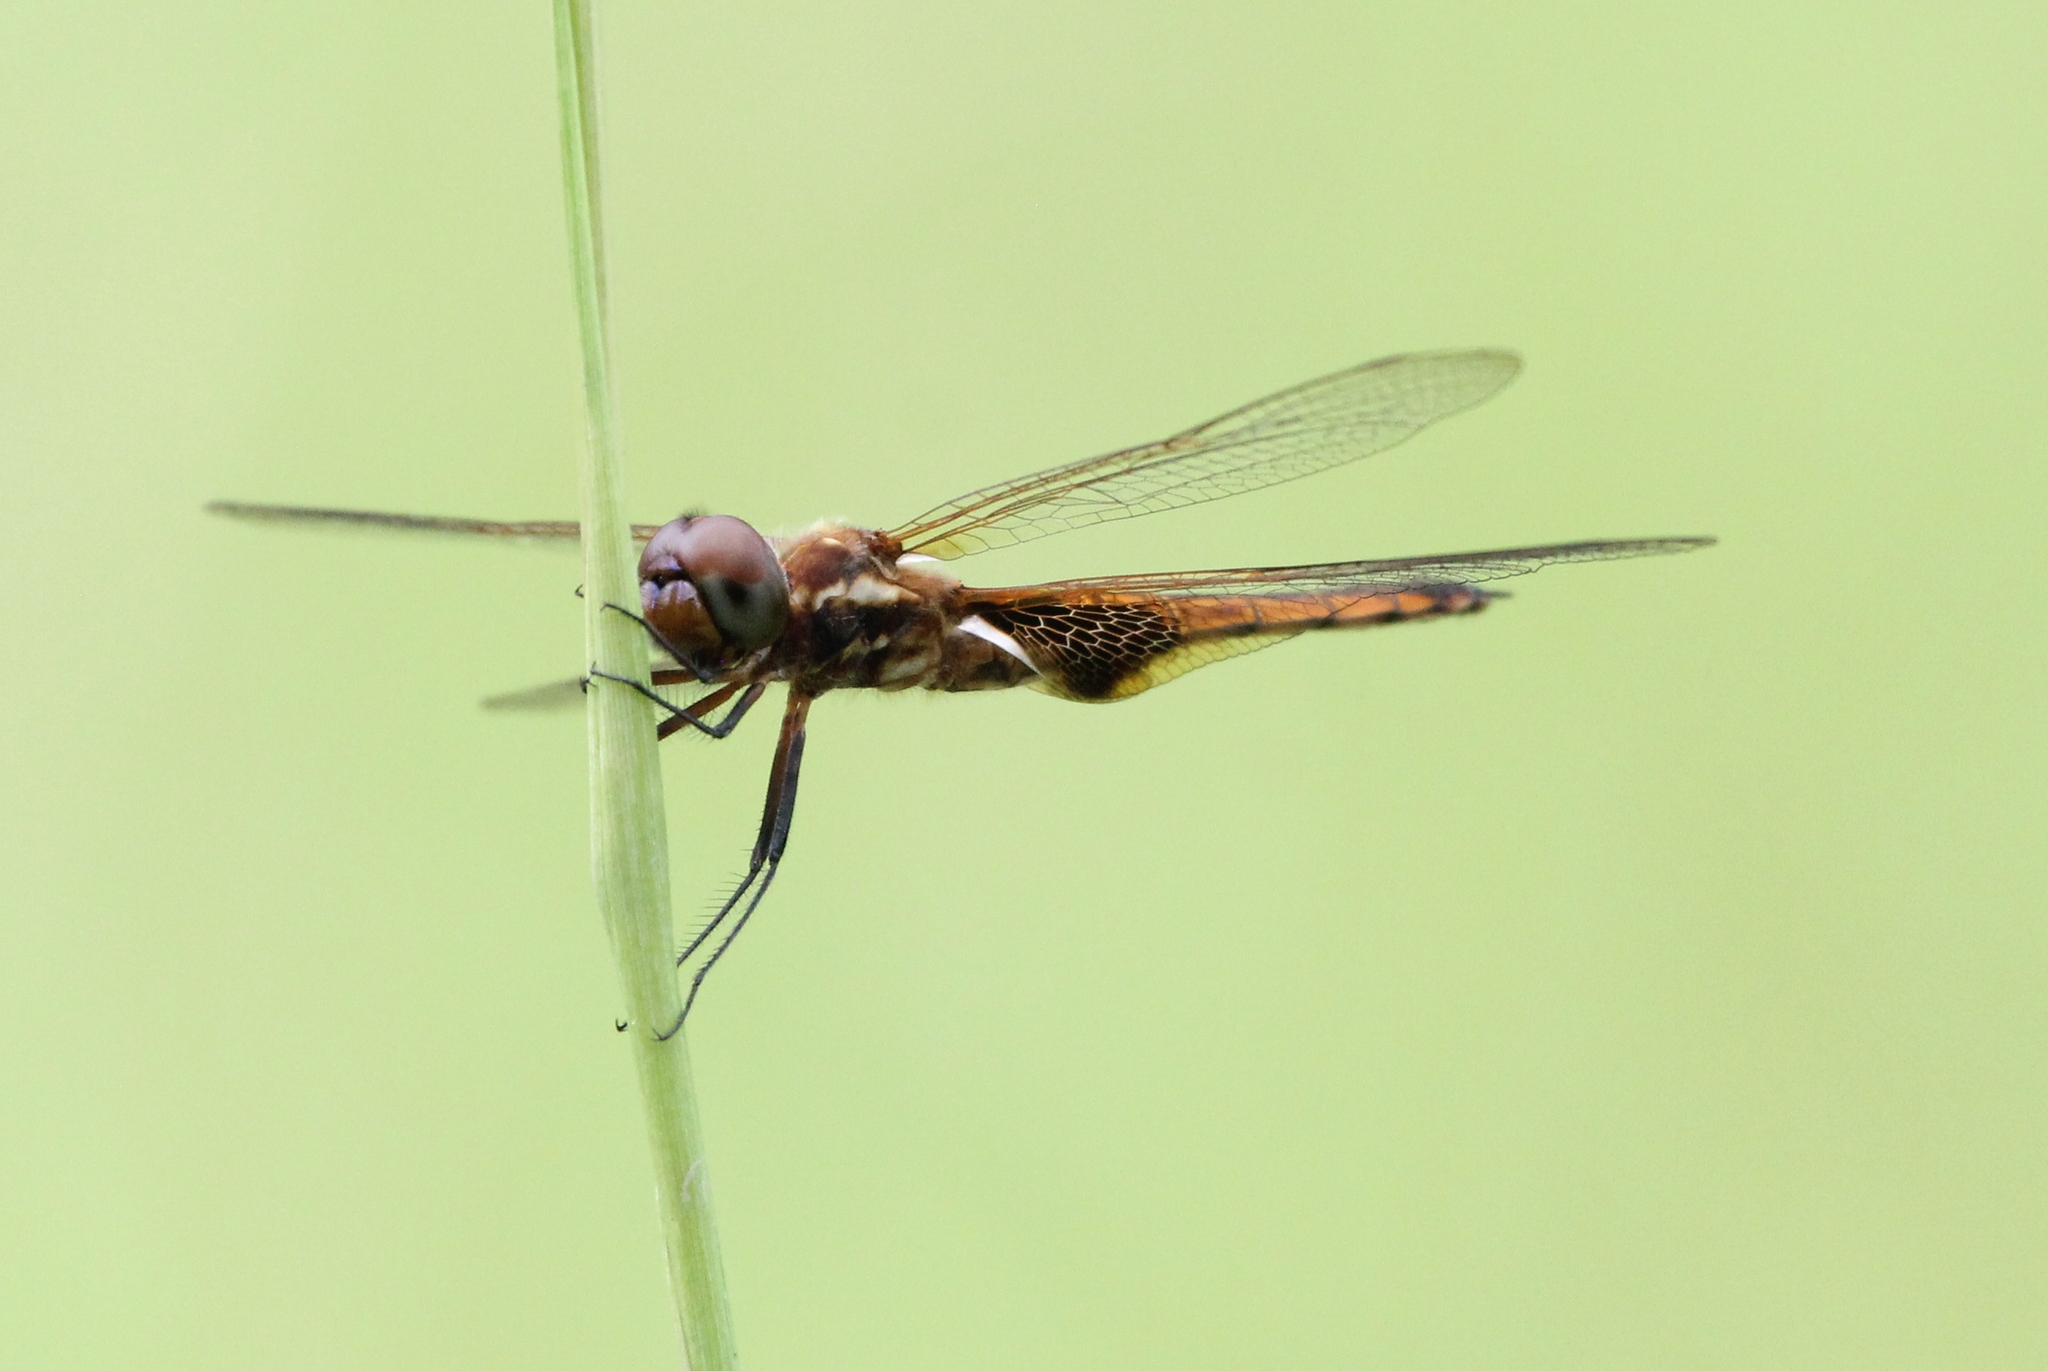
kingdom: Animalia
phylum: Arthropoda
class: Insecta
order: Odonata
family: Libellulidae
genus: Miathyria
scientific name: Miathyria marcella
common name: Hyacinth glider
